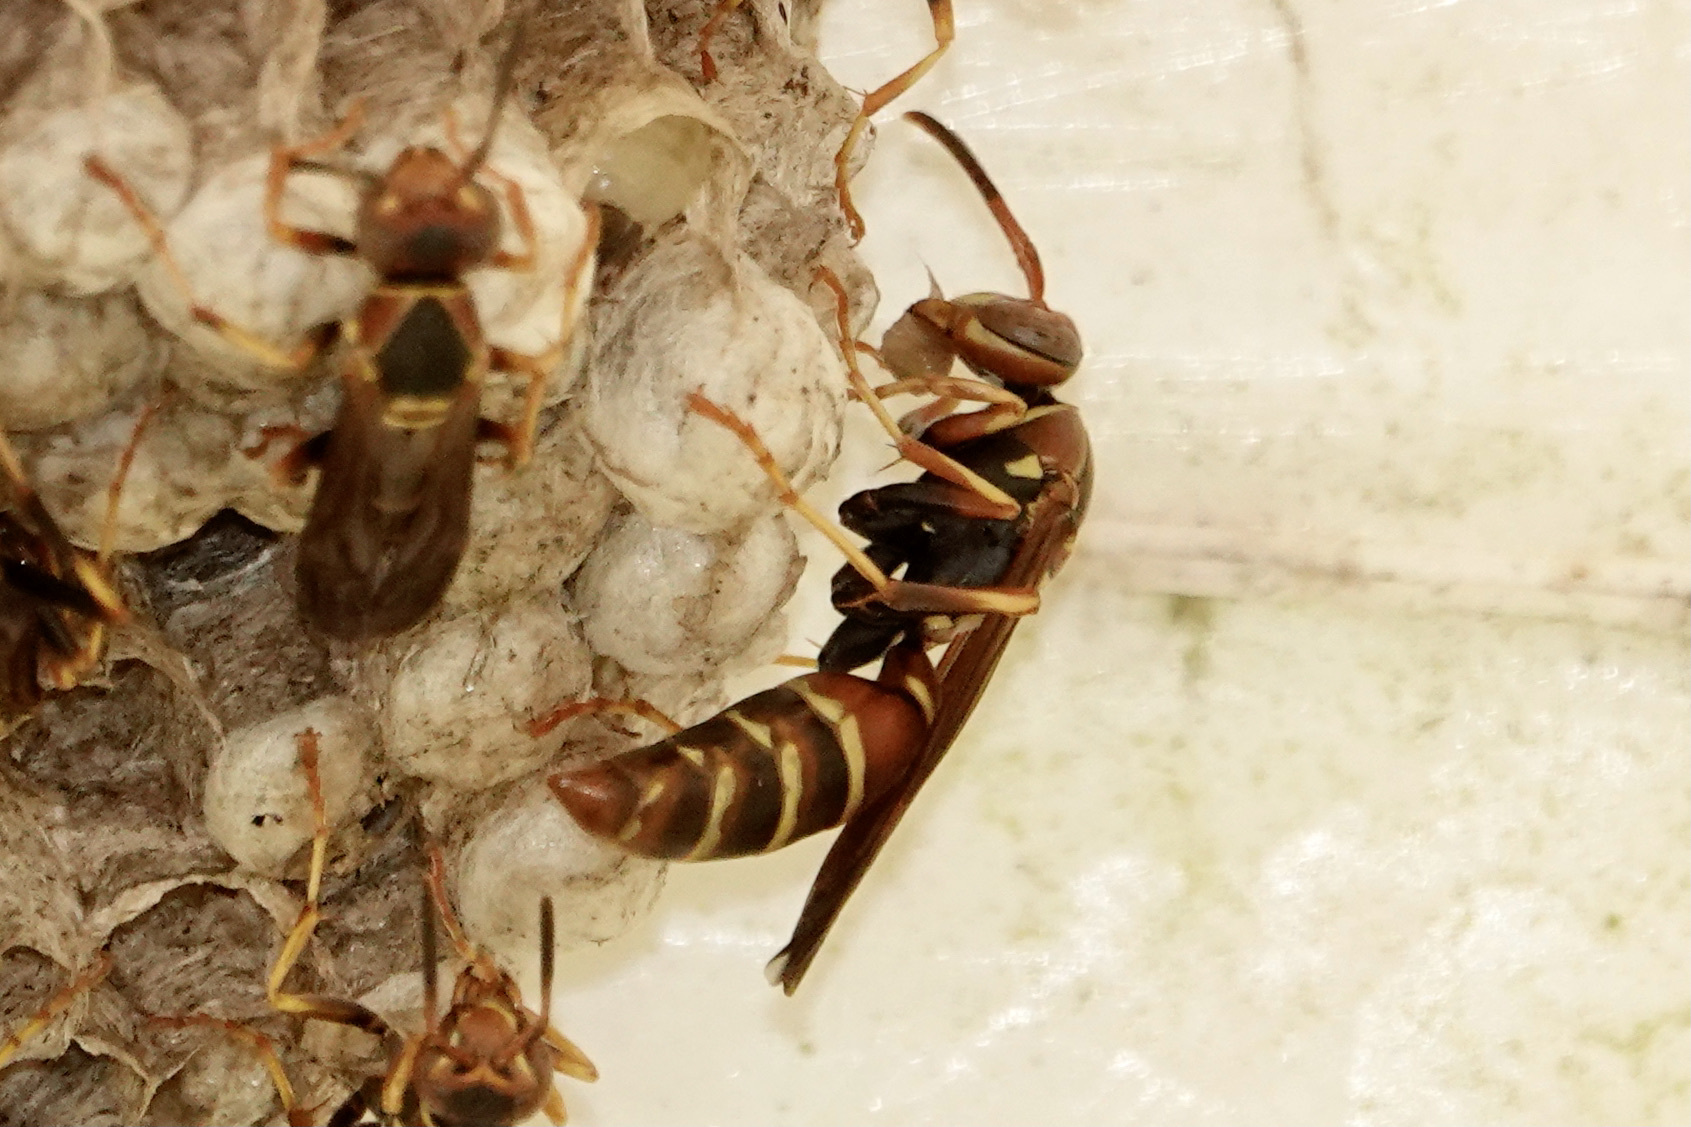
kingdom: Animalia
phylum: Arthropoda
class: Insecta
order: Hymenoptera
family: Eumenidae
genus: Polistes
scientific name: Polistes dorsalis
